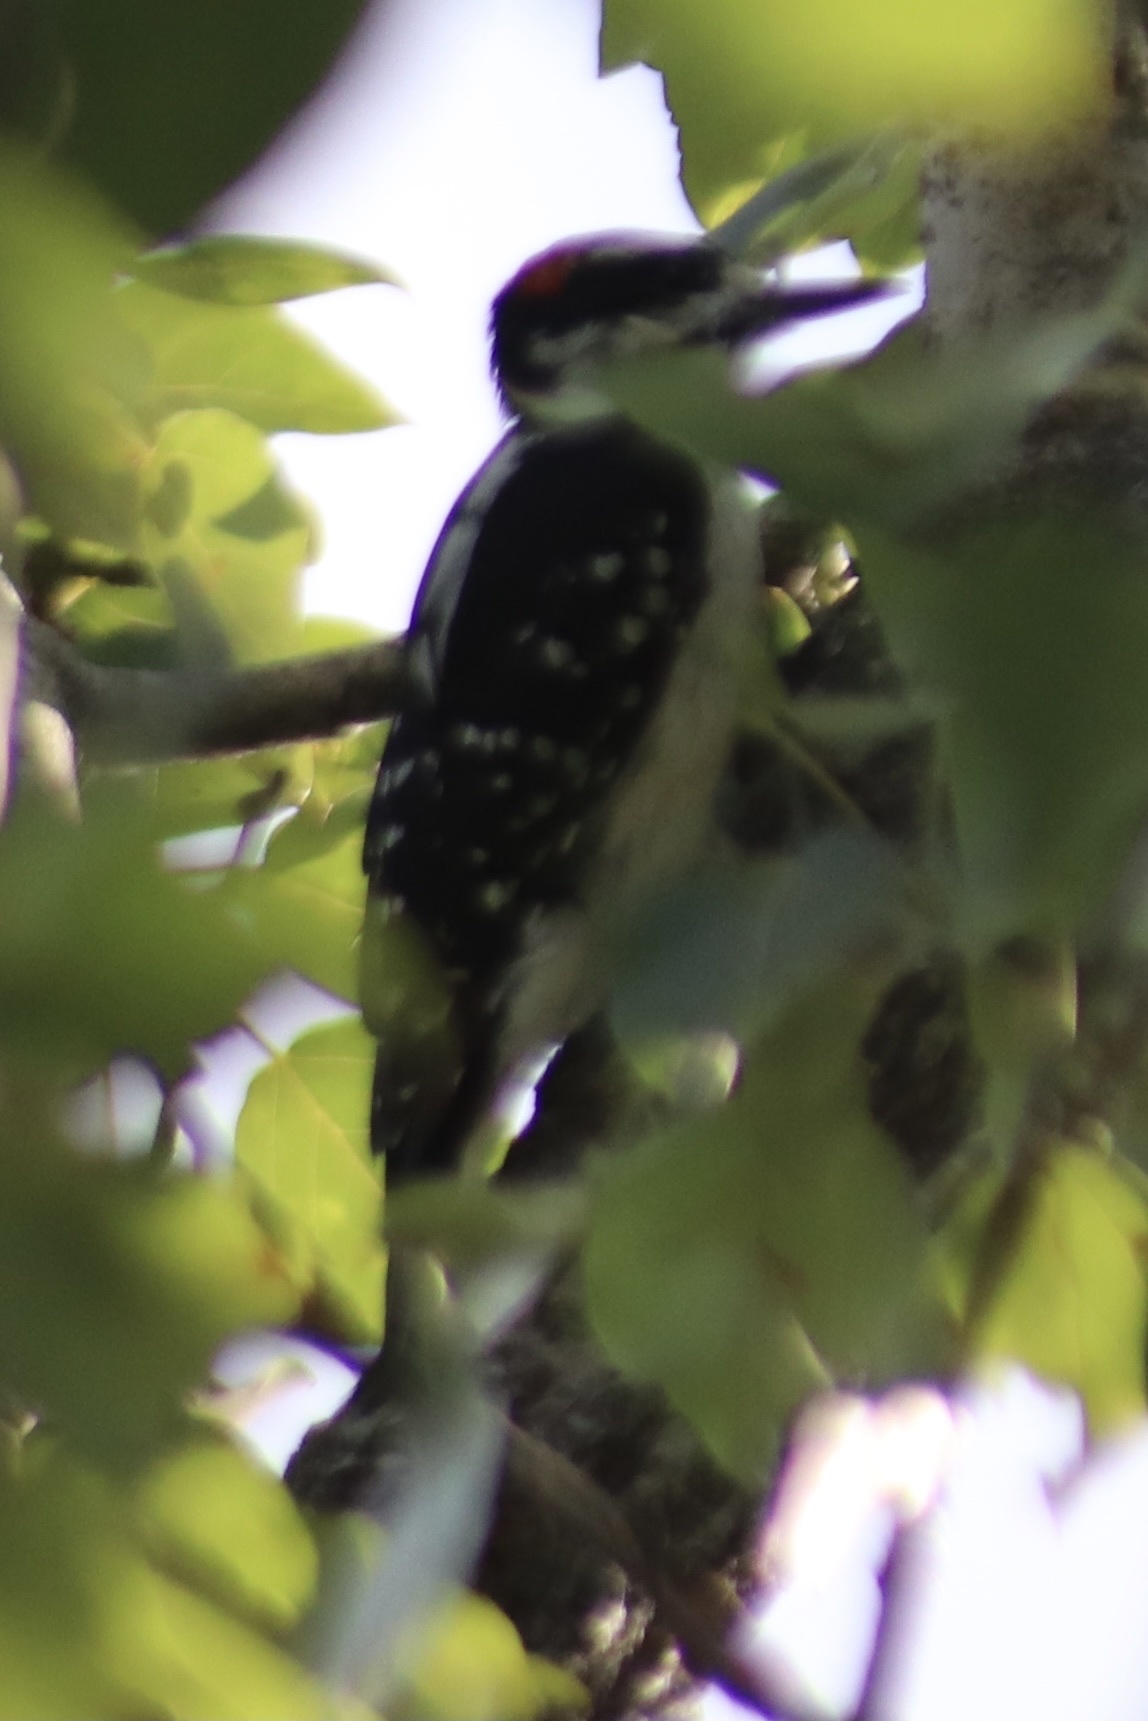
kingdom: Animalia
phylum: Chordata
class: Aves
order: Piciformes
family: Picidae
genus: Leuconotopicus
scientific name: Leuconotopicus villosus
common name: Hairy woodpecker
